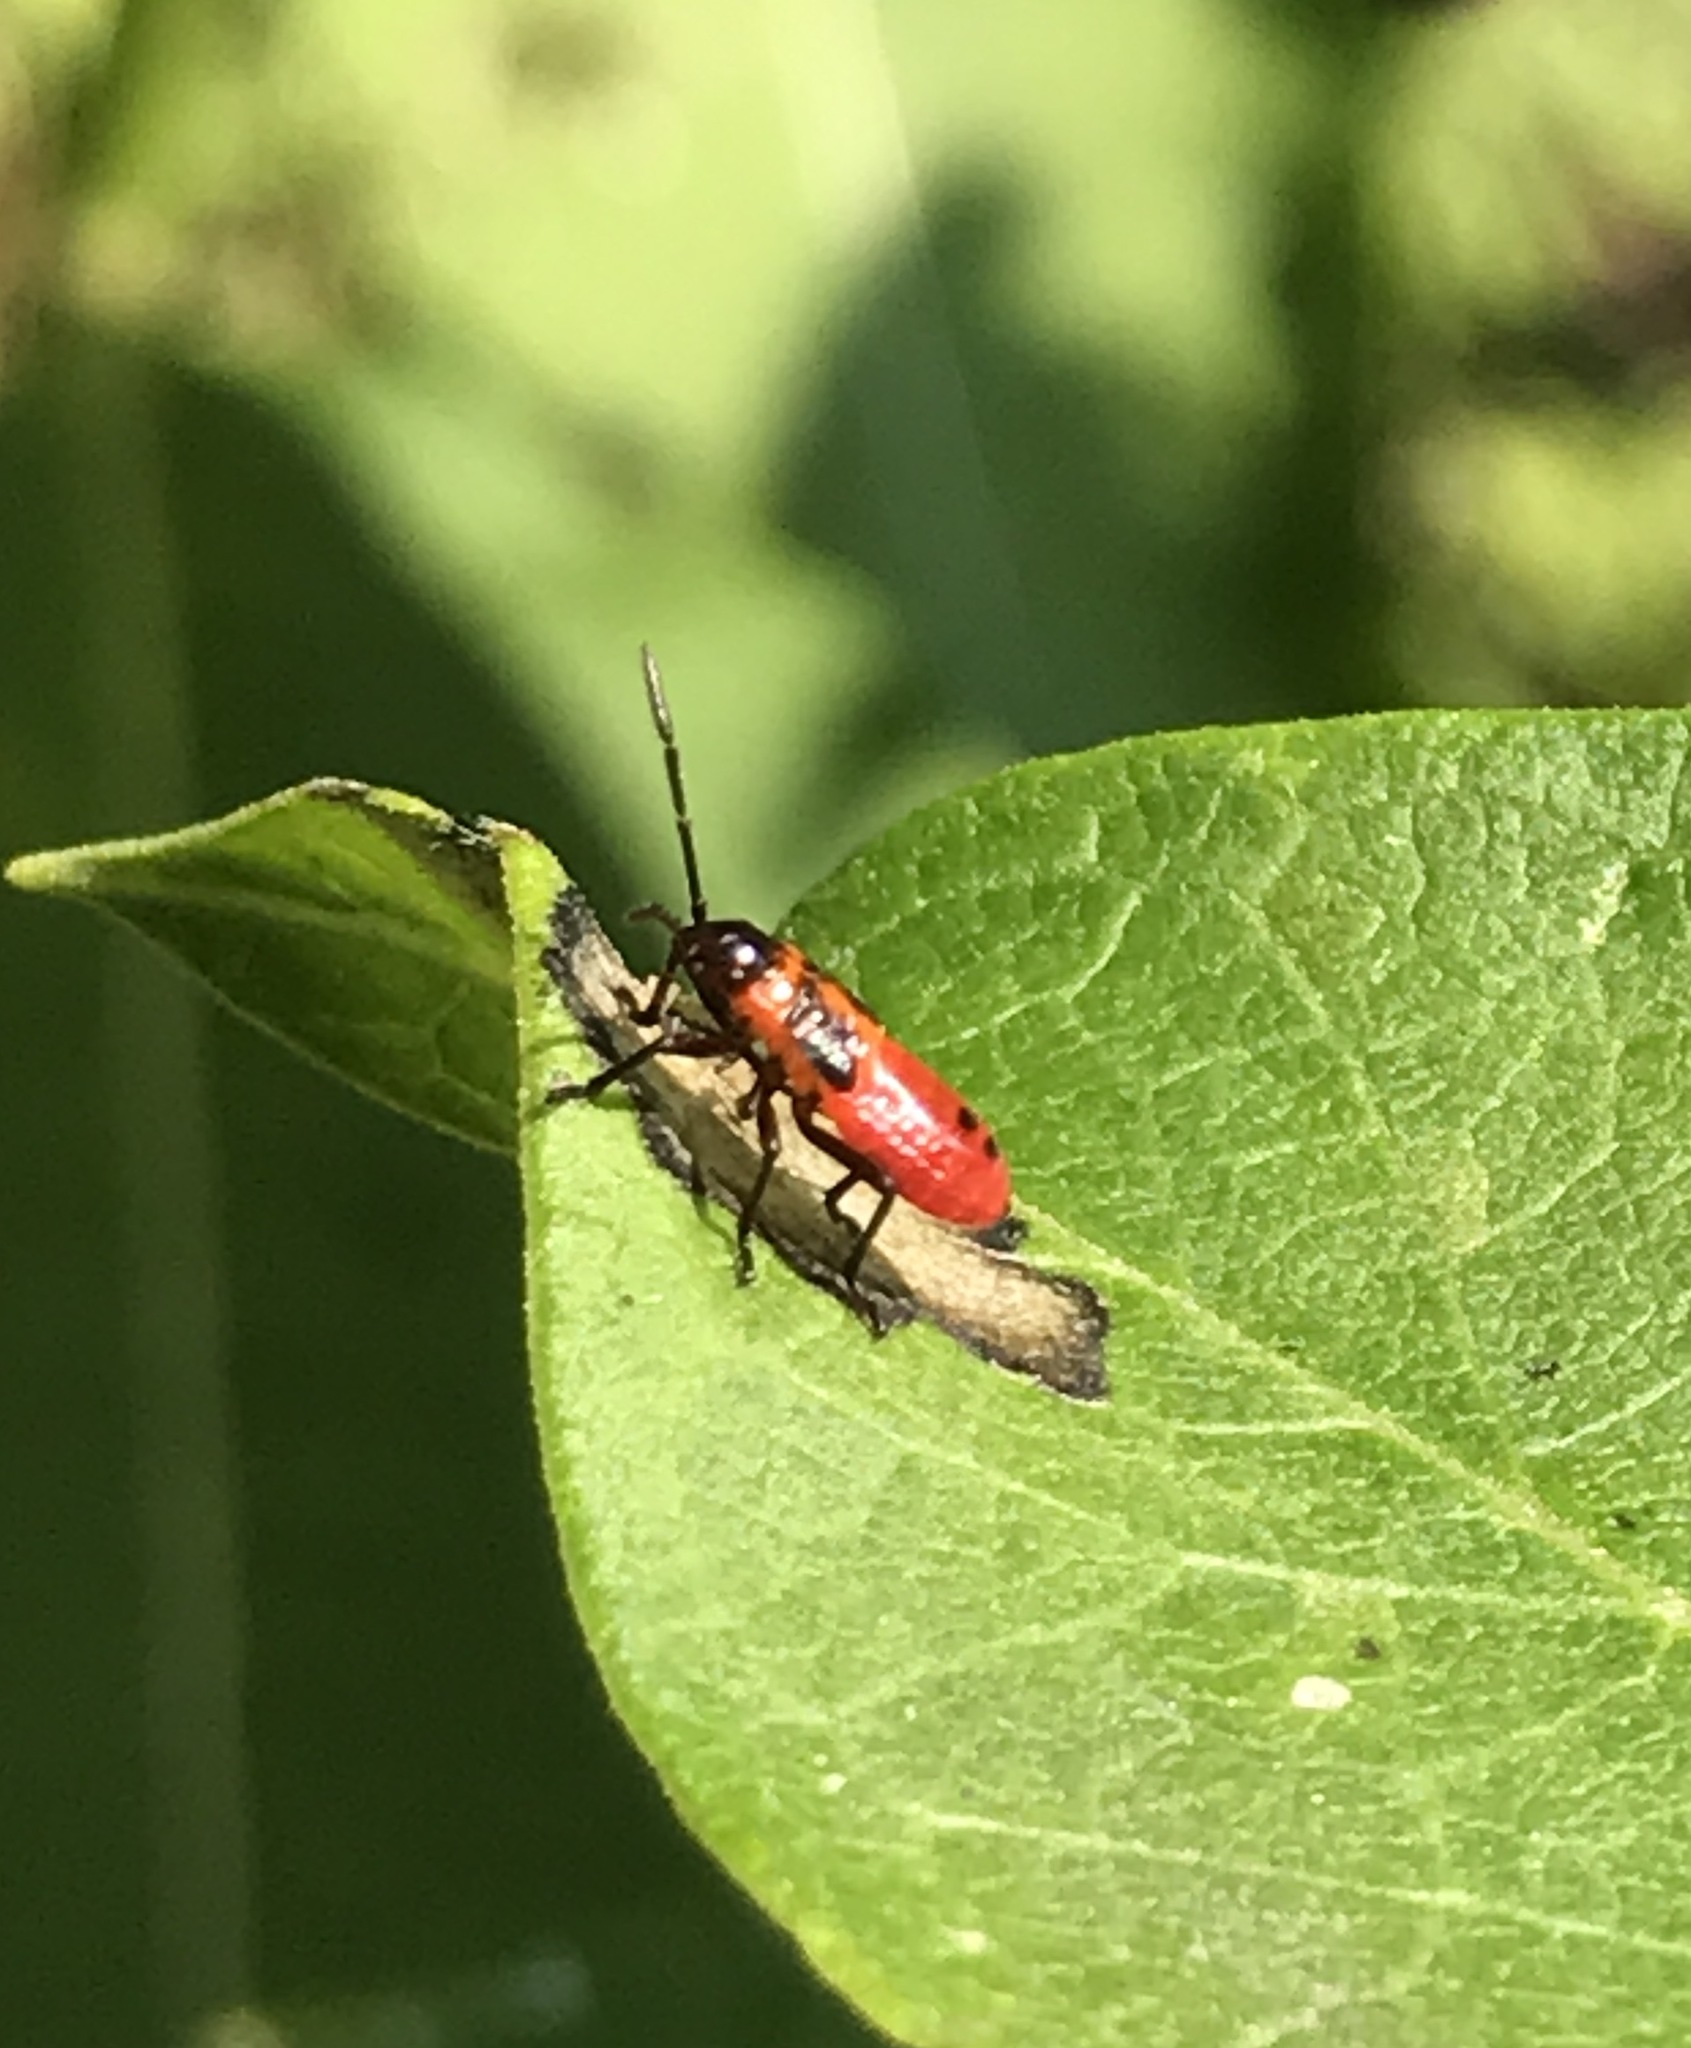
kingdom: Animalia
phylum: Arthropoda
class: Insecta
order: Hemiptera
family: Lygaeidae
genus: Oncopeltus
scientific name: Oncopeltus fasciatus
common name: Large milkweed bug
